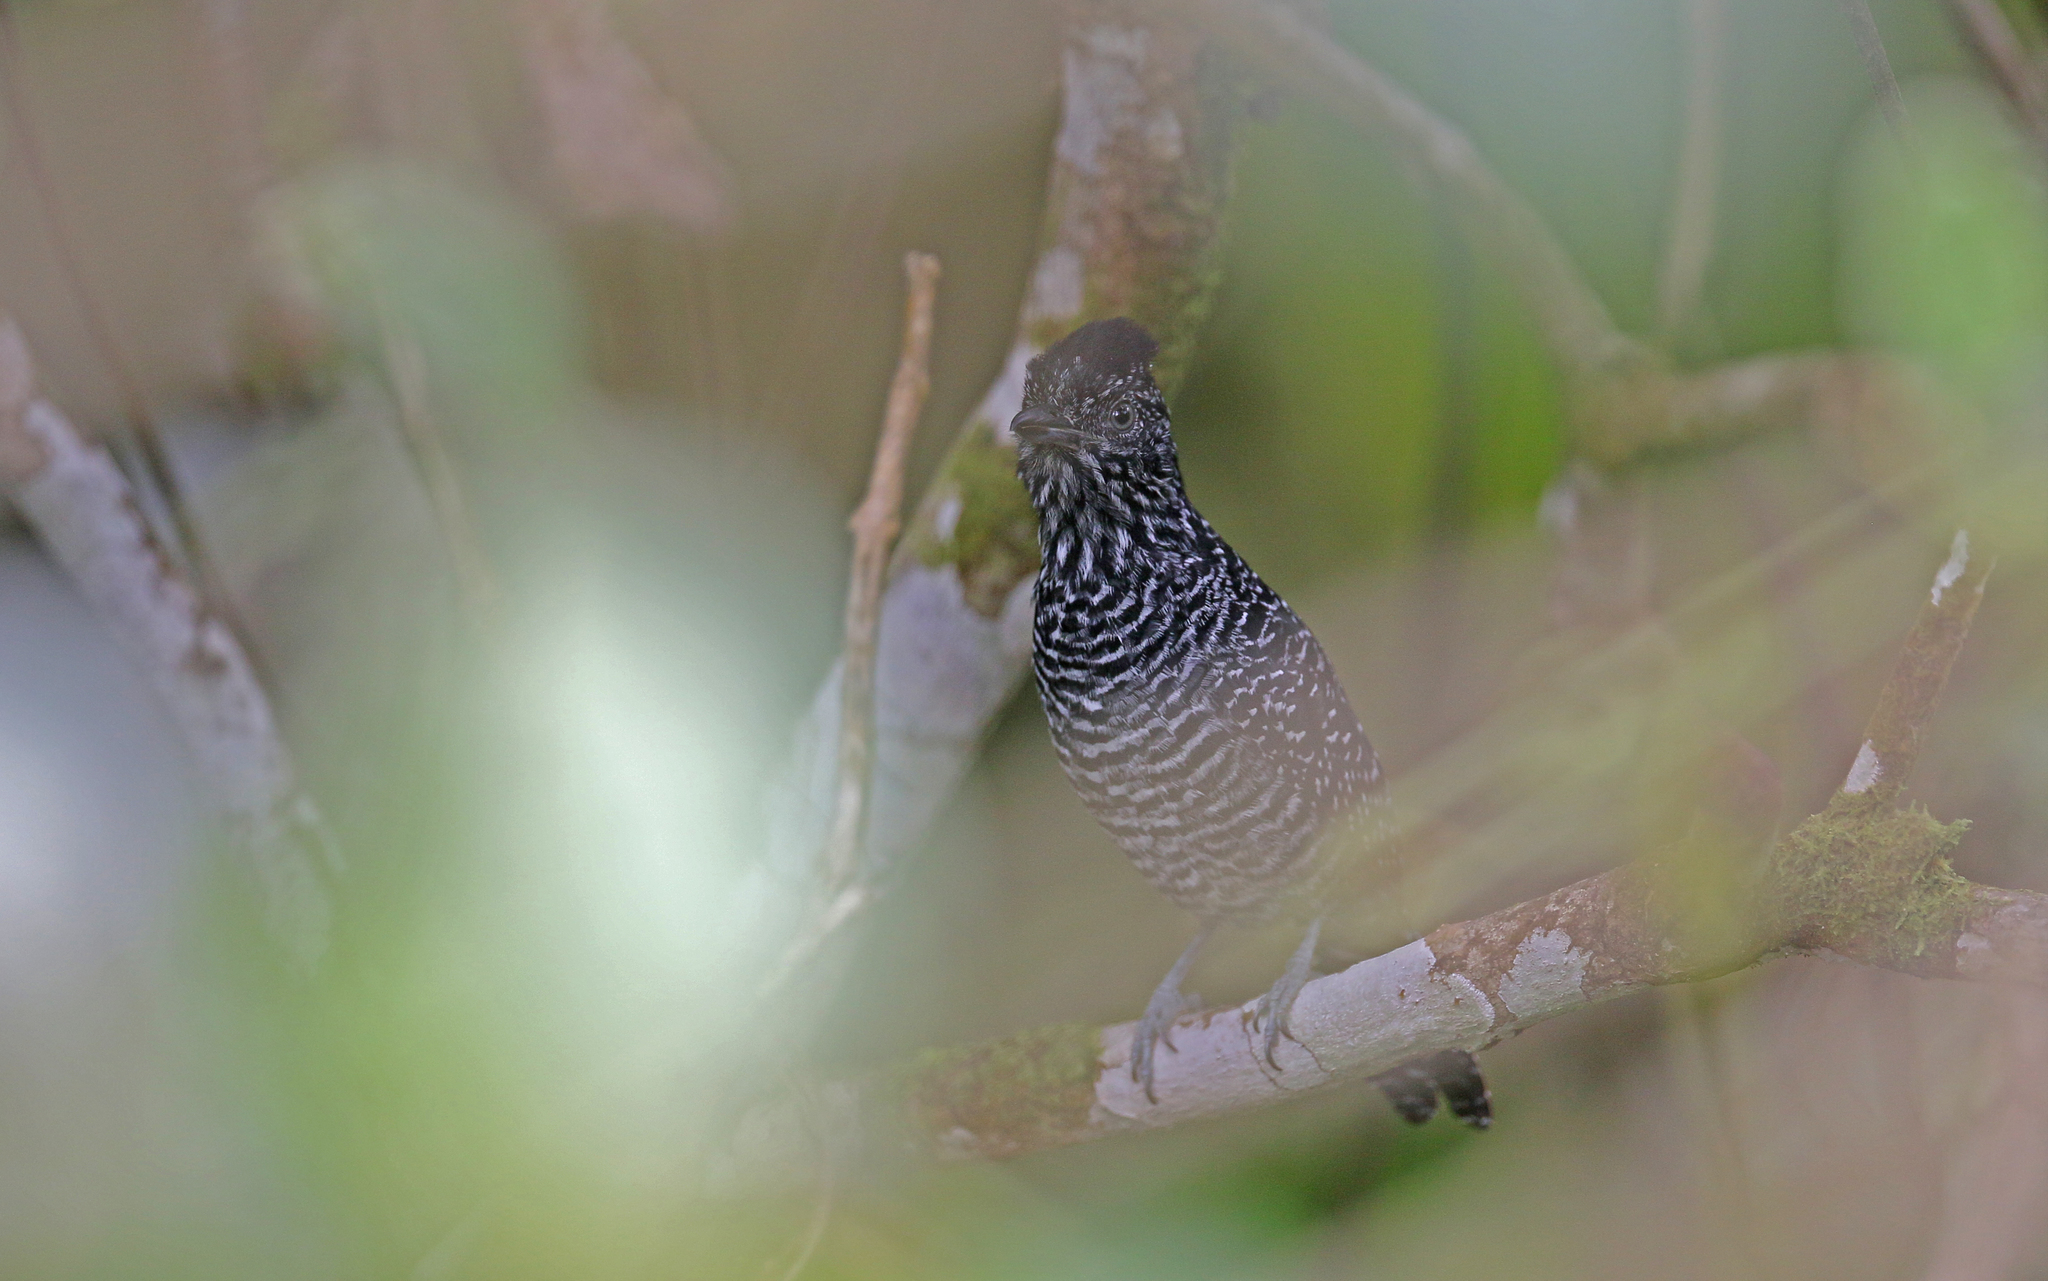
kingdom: Animalia
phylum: Chordata
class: Aves
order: Passeriformes
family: Thamnophilidae
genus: Thamnophilus
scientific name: Thamnophilus tenuepunctatus
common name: Lined antshrike
